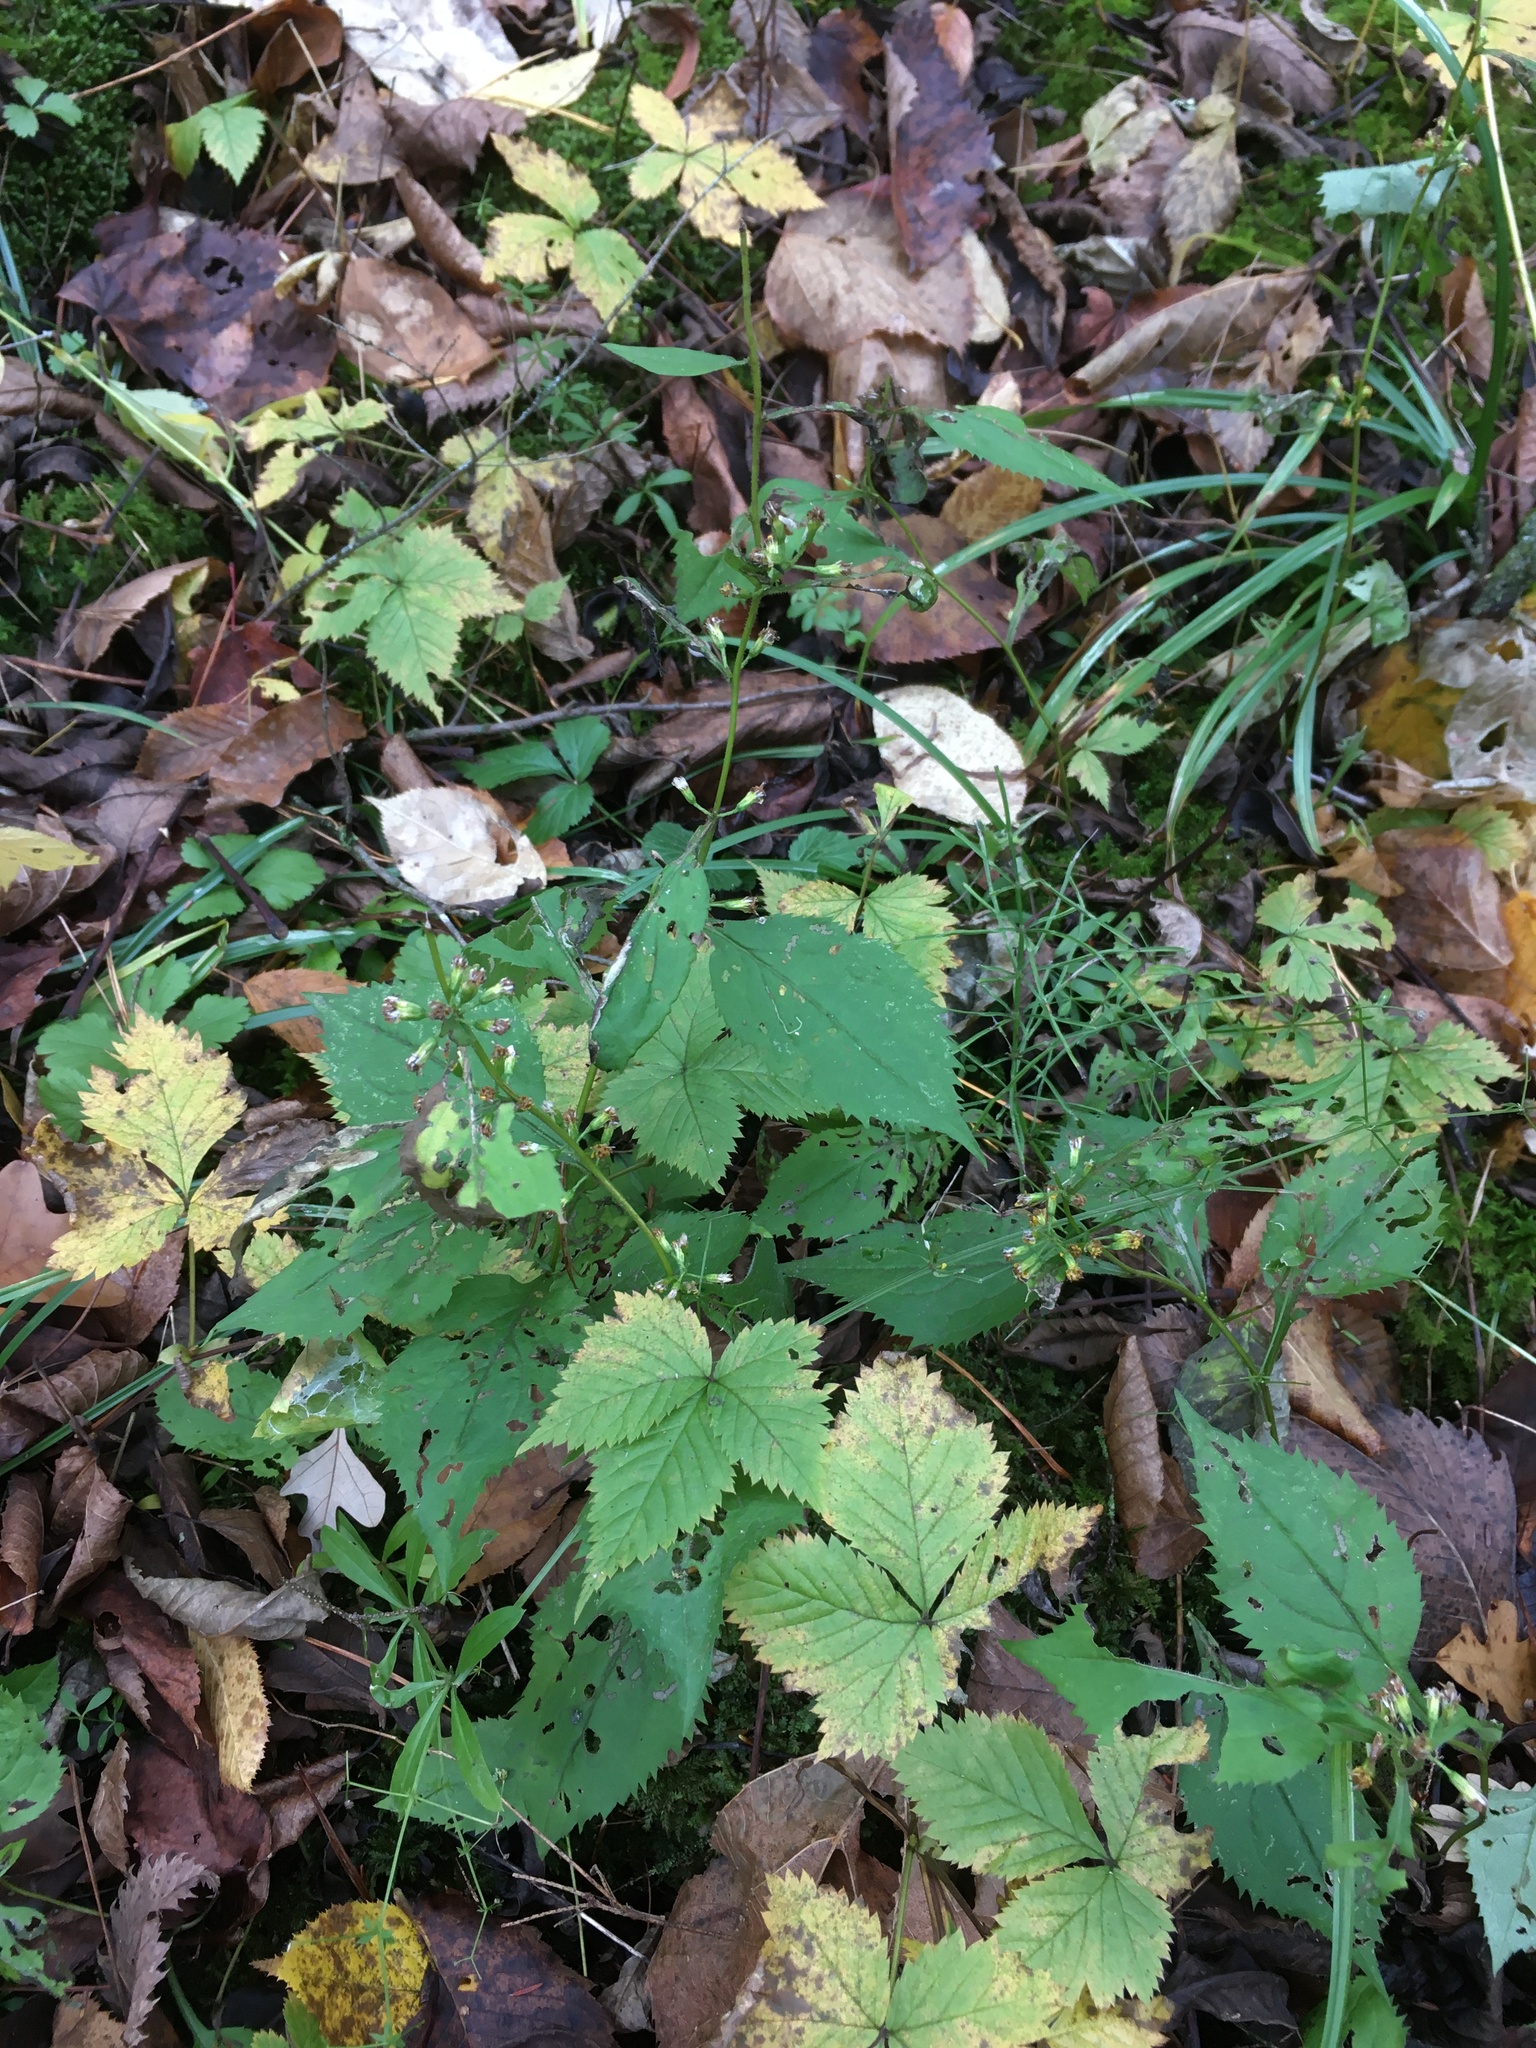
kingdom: Plantae
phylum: Tracheophyta
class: Magnoliopsida
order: Asterales
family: Asteraceae
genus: Solidago
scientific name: Solidago flexicaulis
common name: Zig-zag goldenrod
